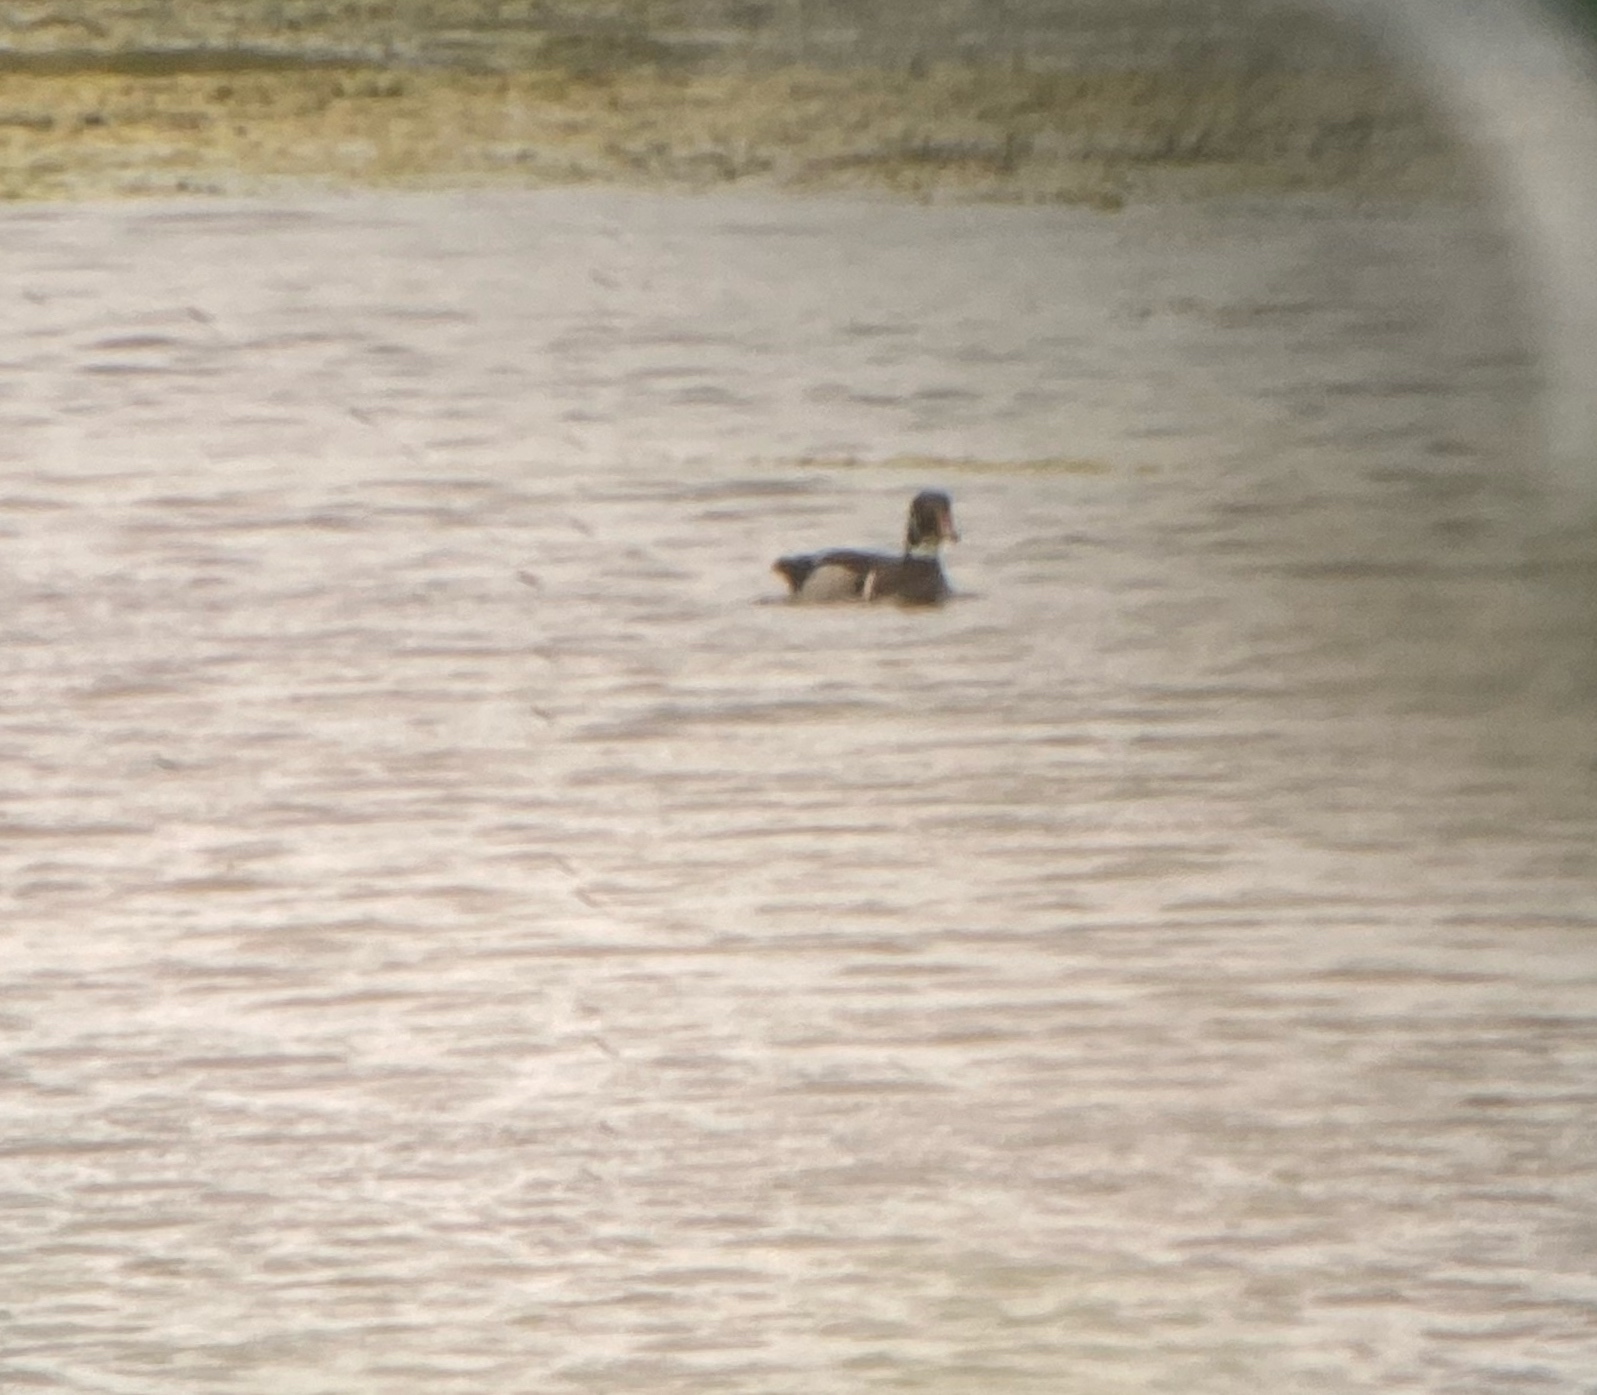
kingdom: Animalia
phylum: Chordata
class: Aves
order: Anseriformes
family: Anatidae
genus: Aix
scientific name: Aix sponsa
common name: Wood duck
